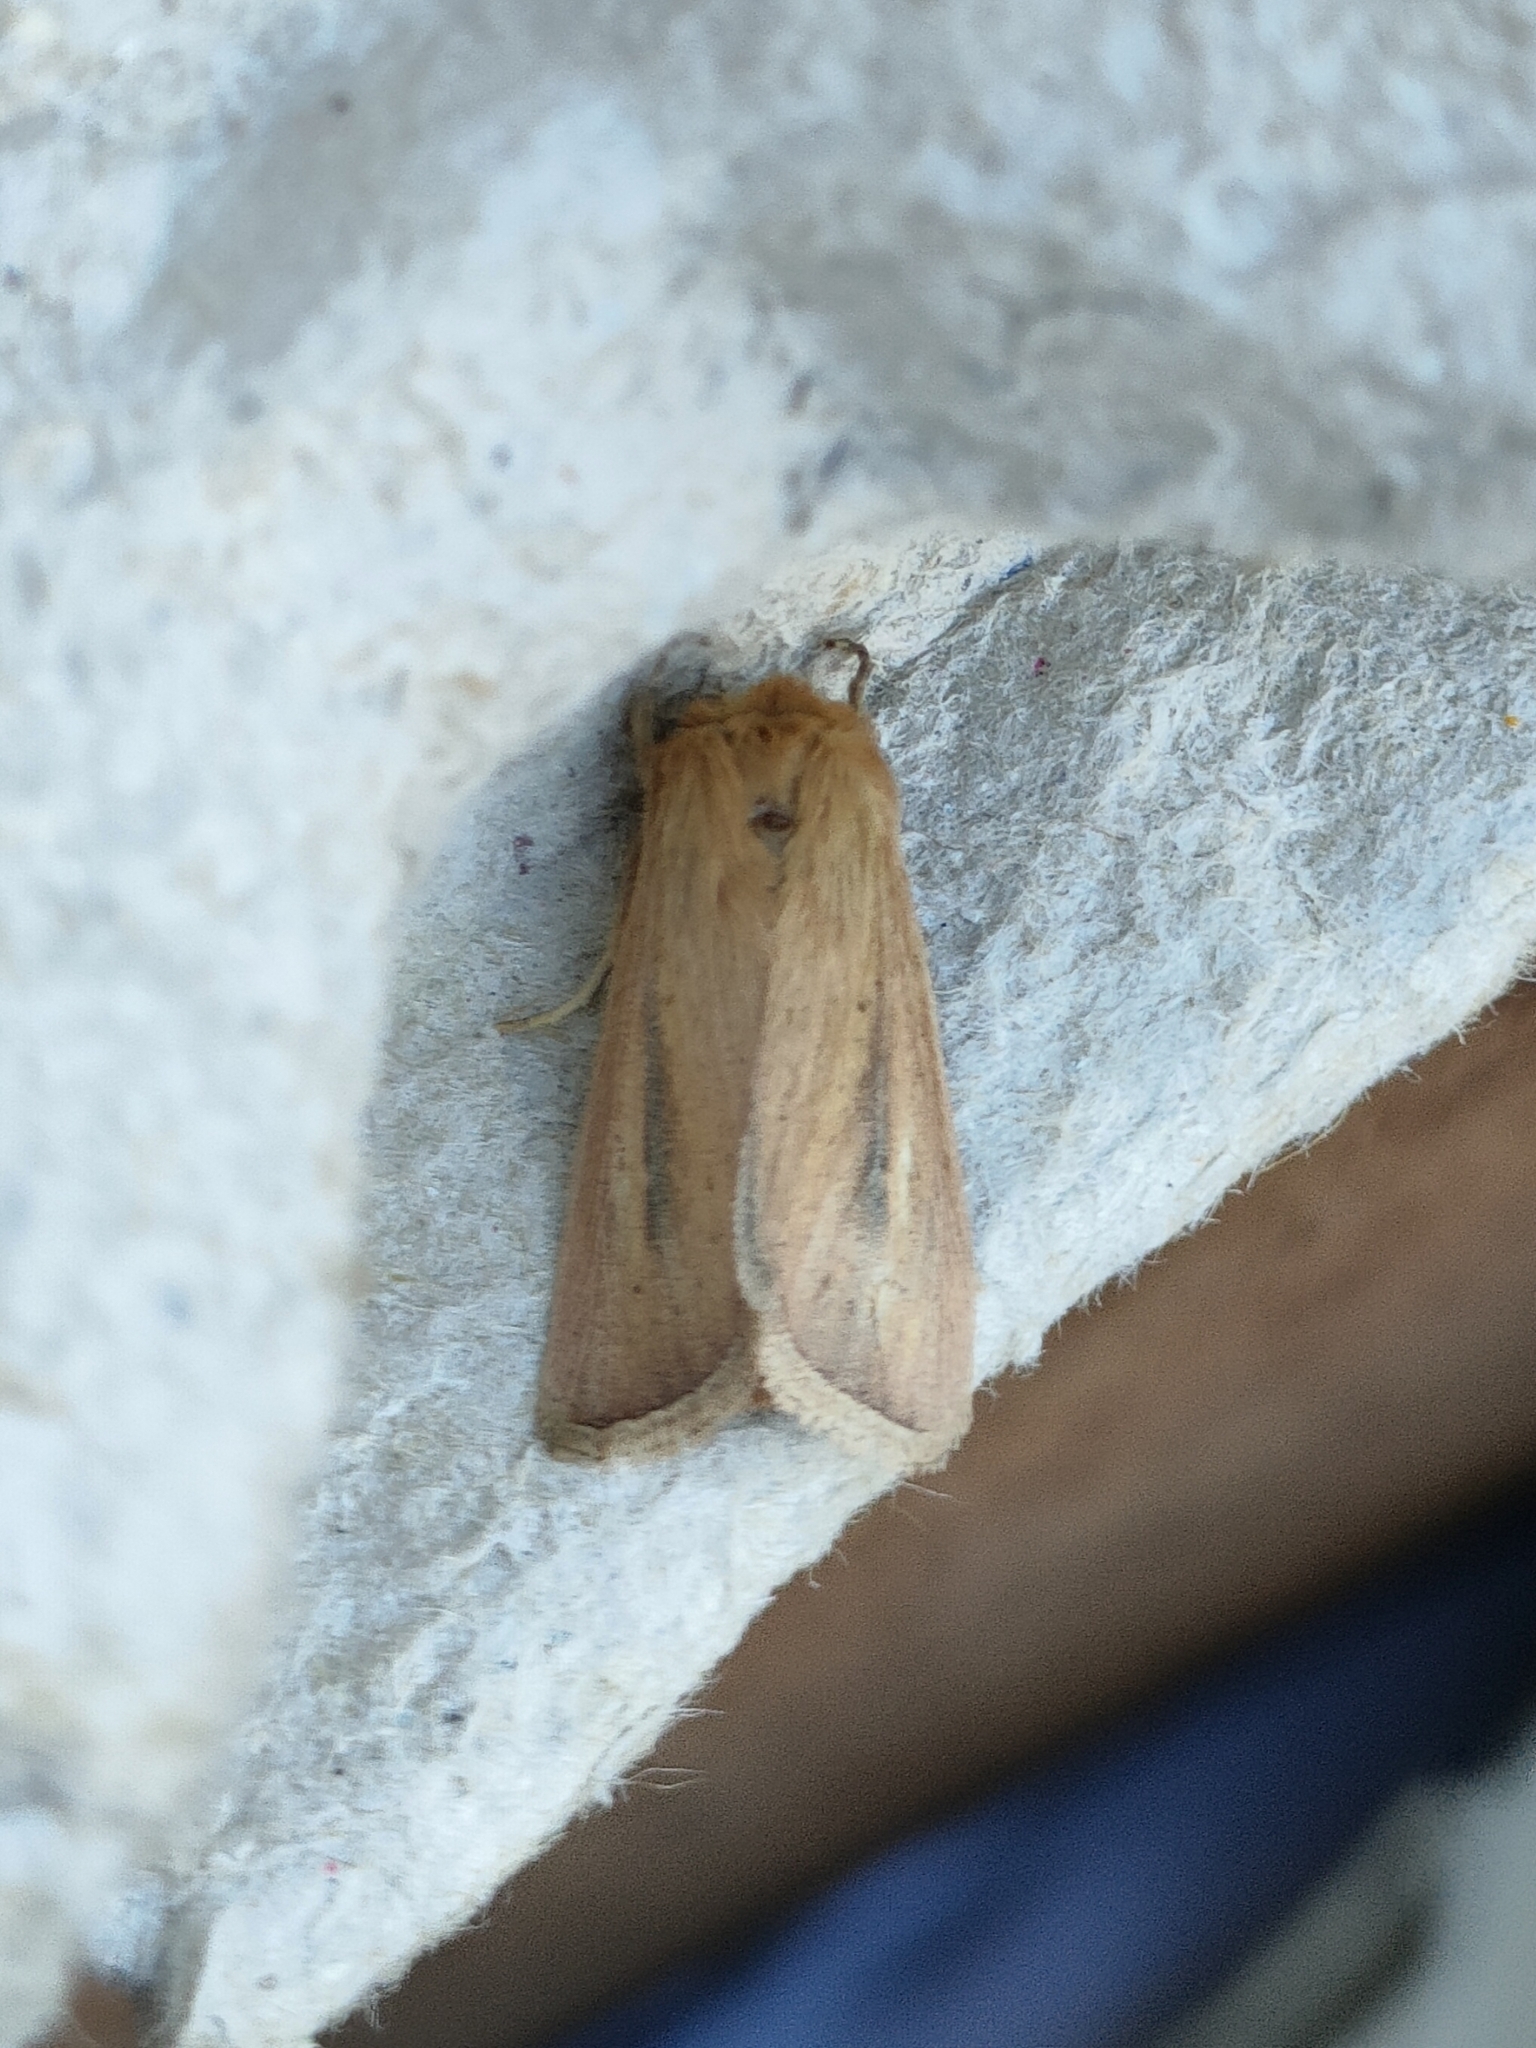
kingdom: Animalia
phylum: Arthropoda
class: Insecta
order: Lepidoptera
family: Noctuidae
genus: Sesamia
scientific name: Sesamia nonagrioides
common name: Pink stem borer
